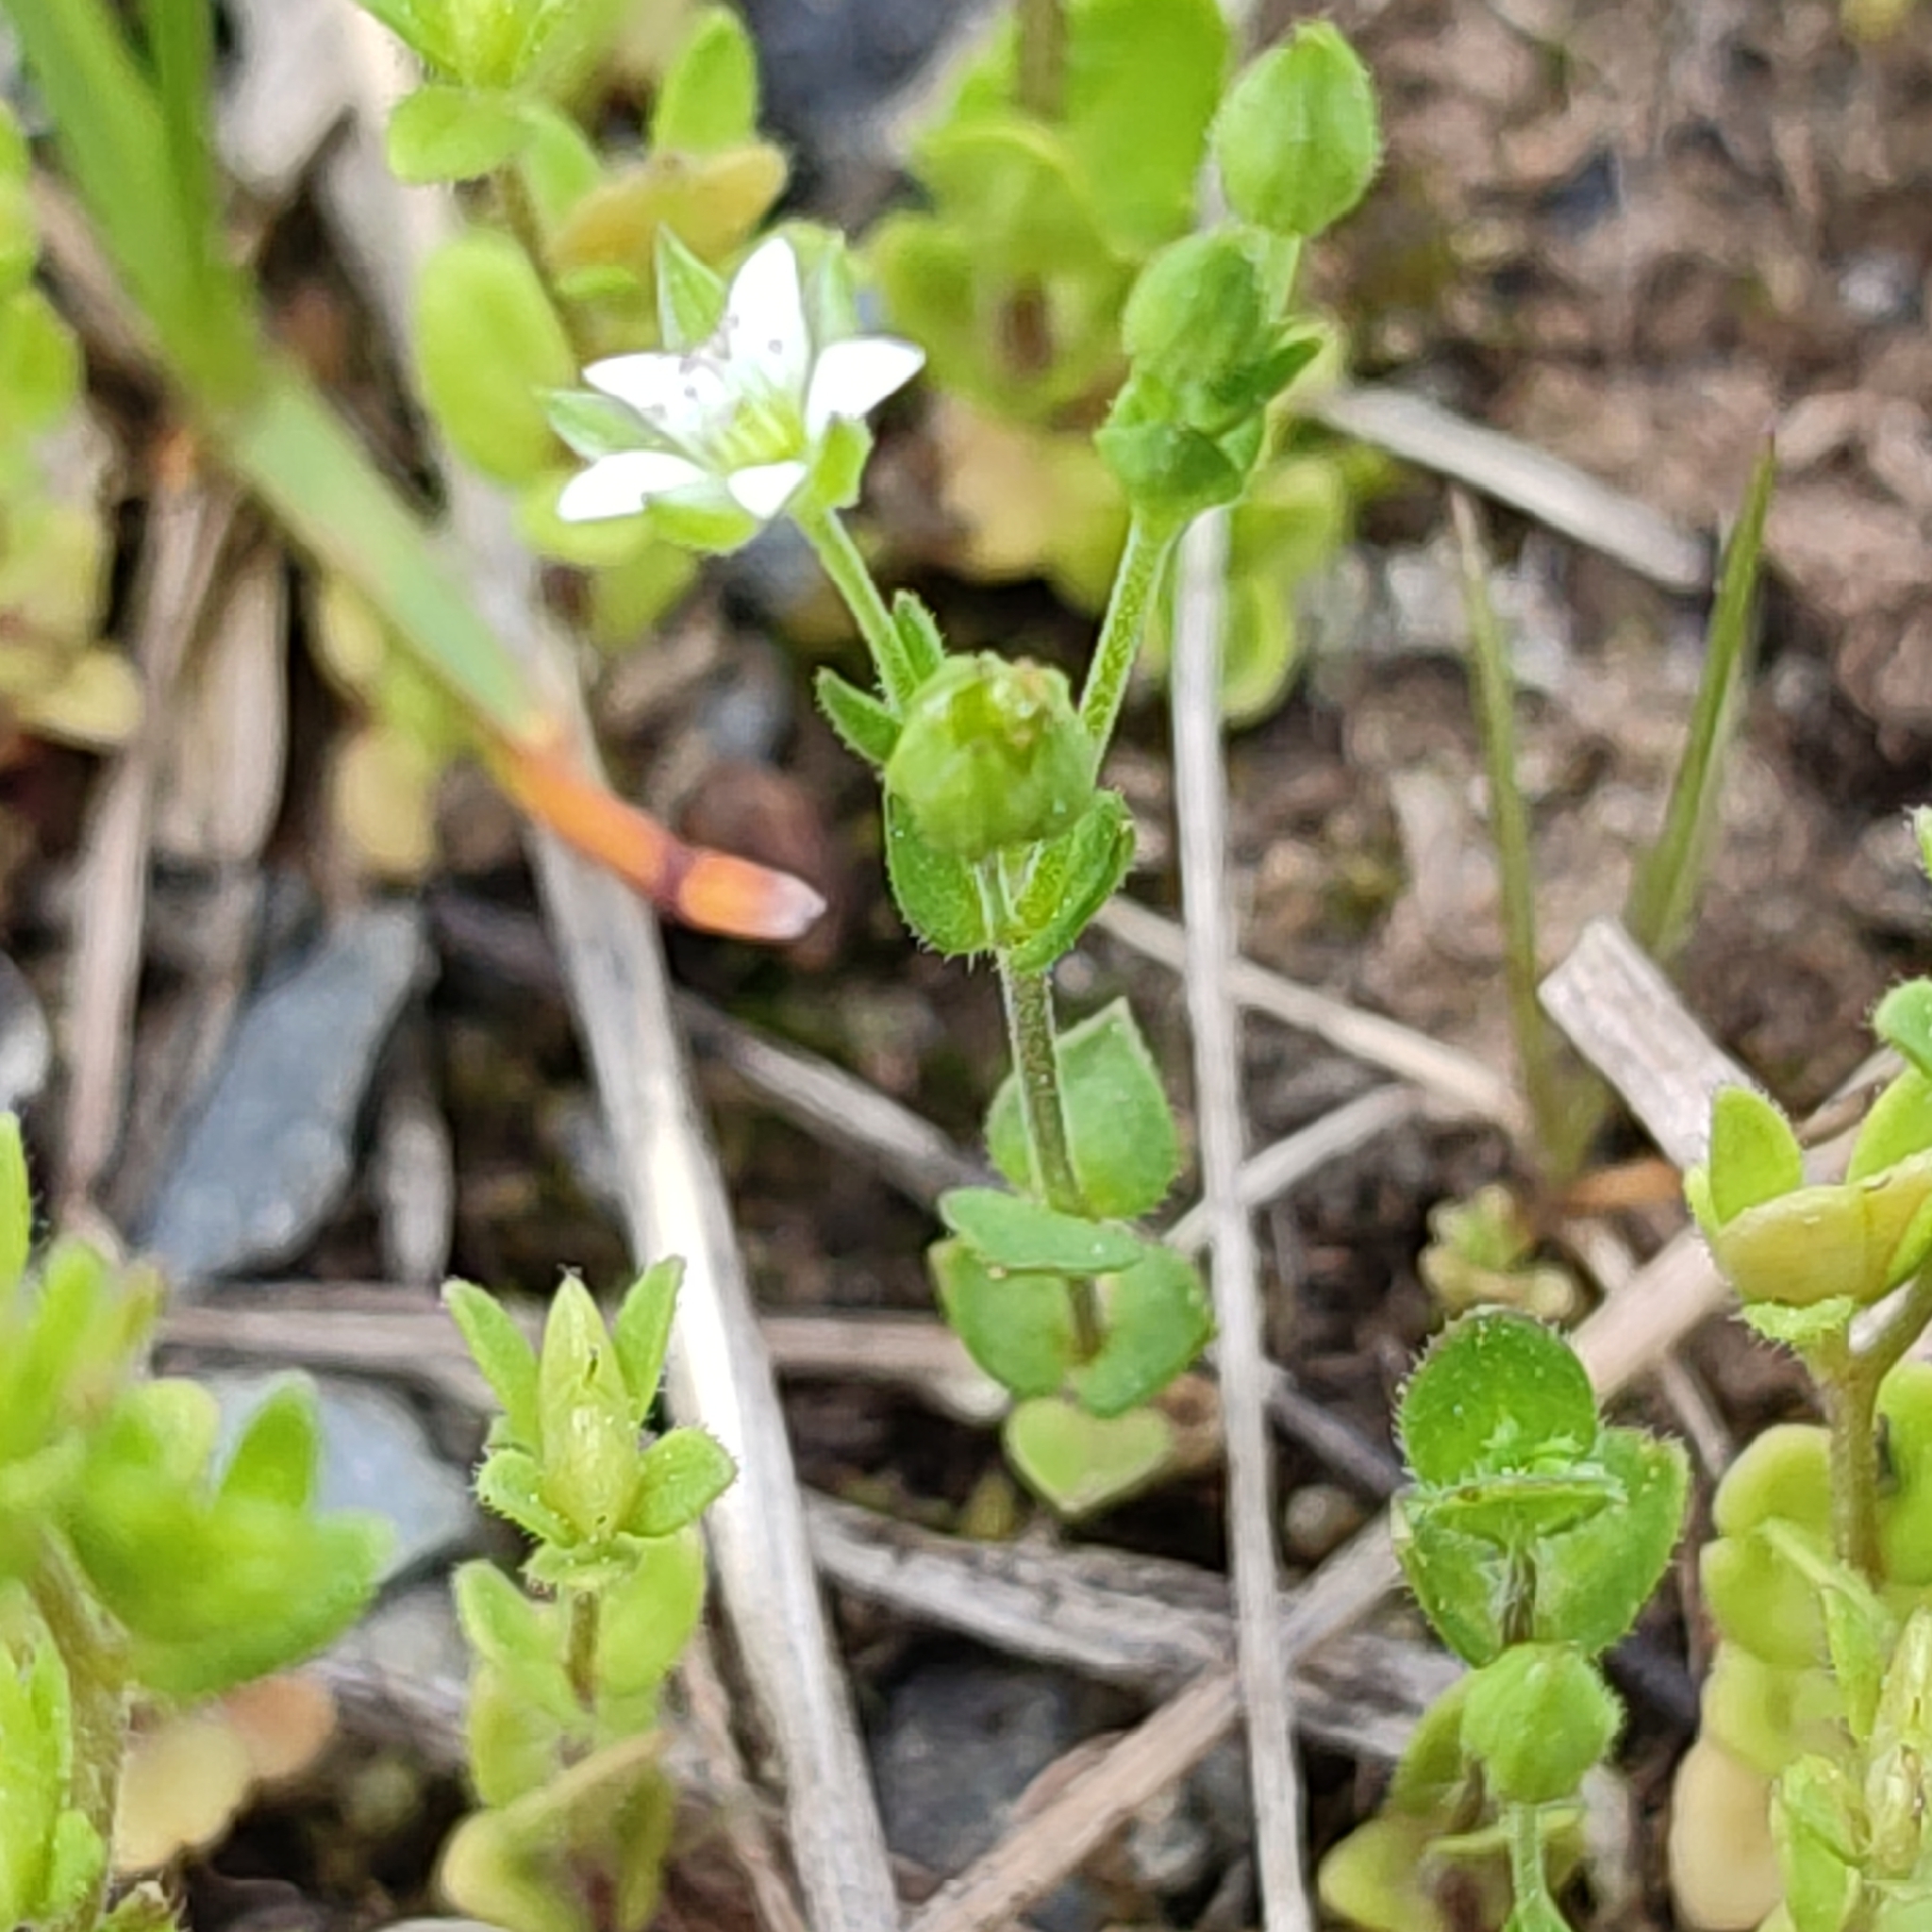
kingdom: Plantae
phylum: Tracheophyta
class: Magnoliopsida
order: Caryophyllales
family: Caryophyllaceae
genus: Arenaria
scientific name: Arenaria serpyllifolia
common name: Thyme-leaved sandwort
